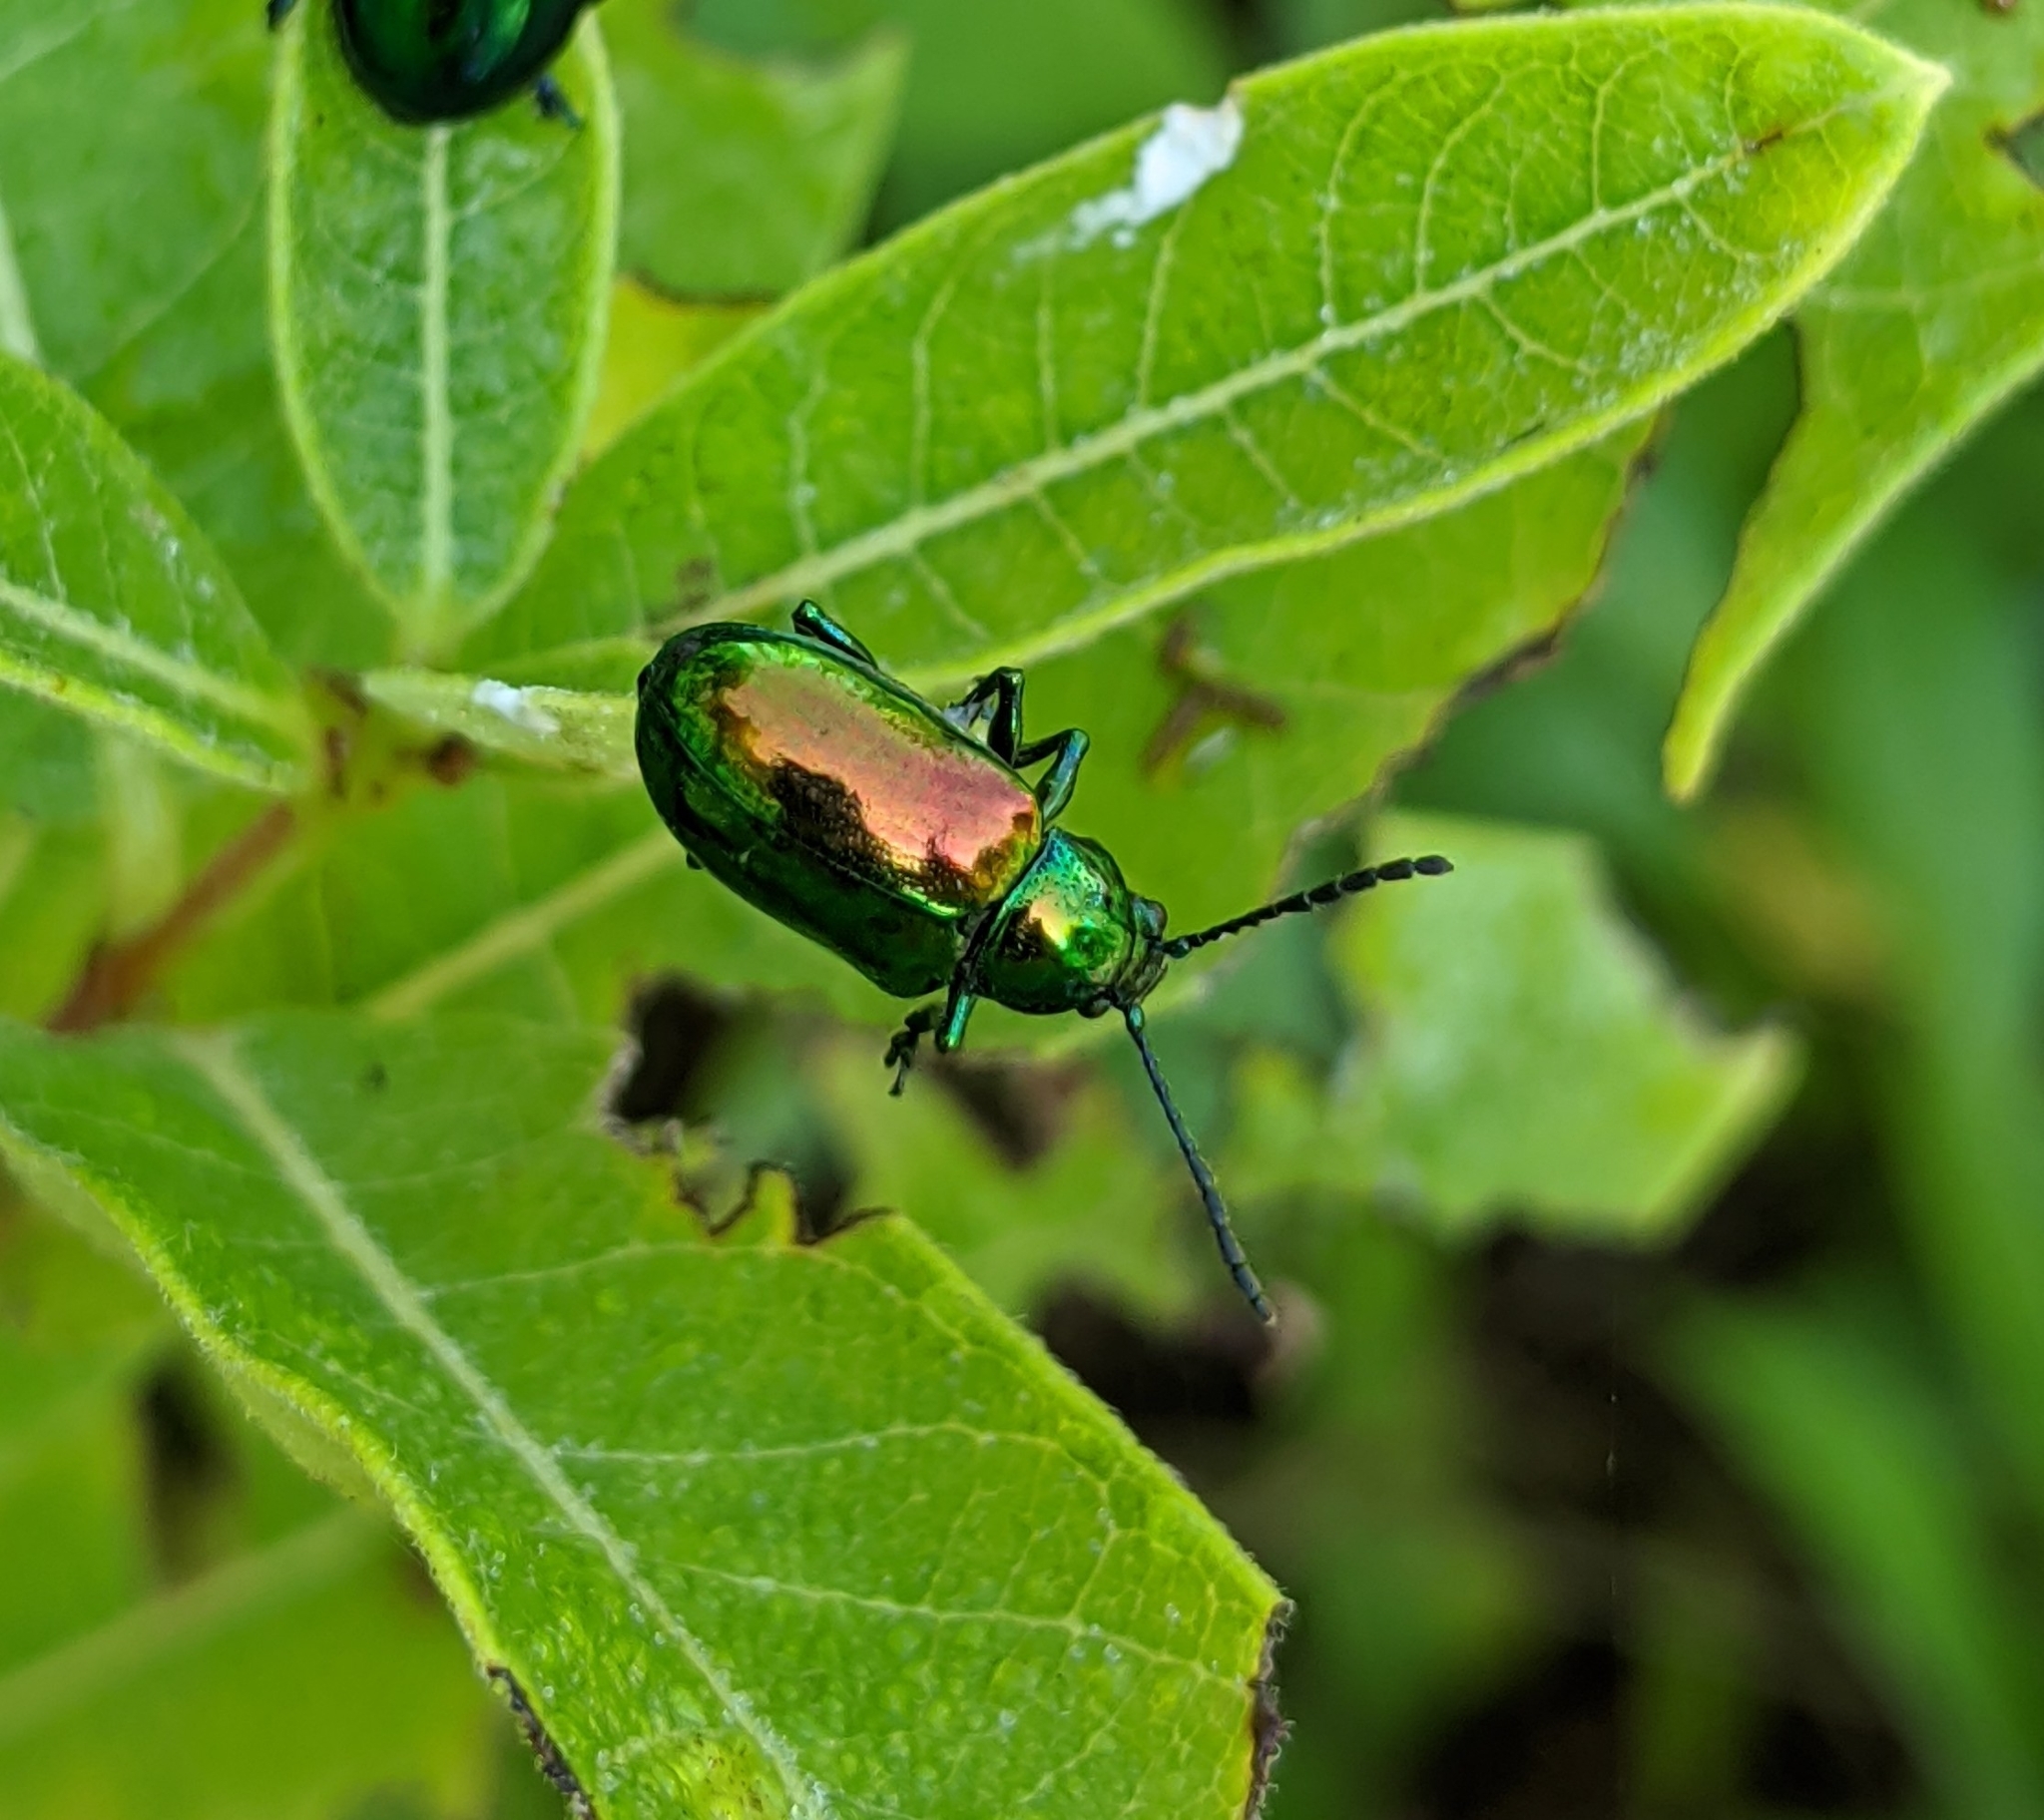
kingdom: Animalia
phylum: Arthropoda
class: Insecta
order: Coleoptera
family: Chrysomelidae
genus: Chrysochus
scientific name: Chrysochus auratus
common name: Dogbane leaf beetle
